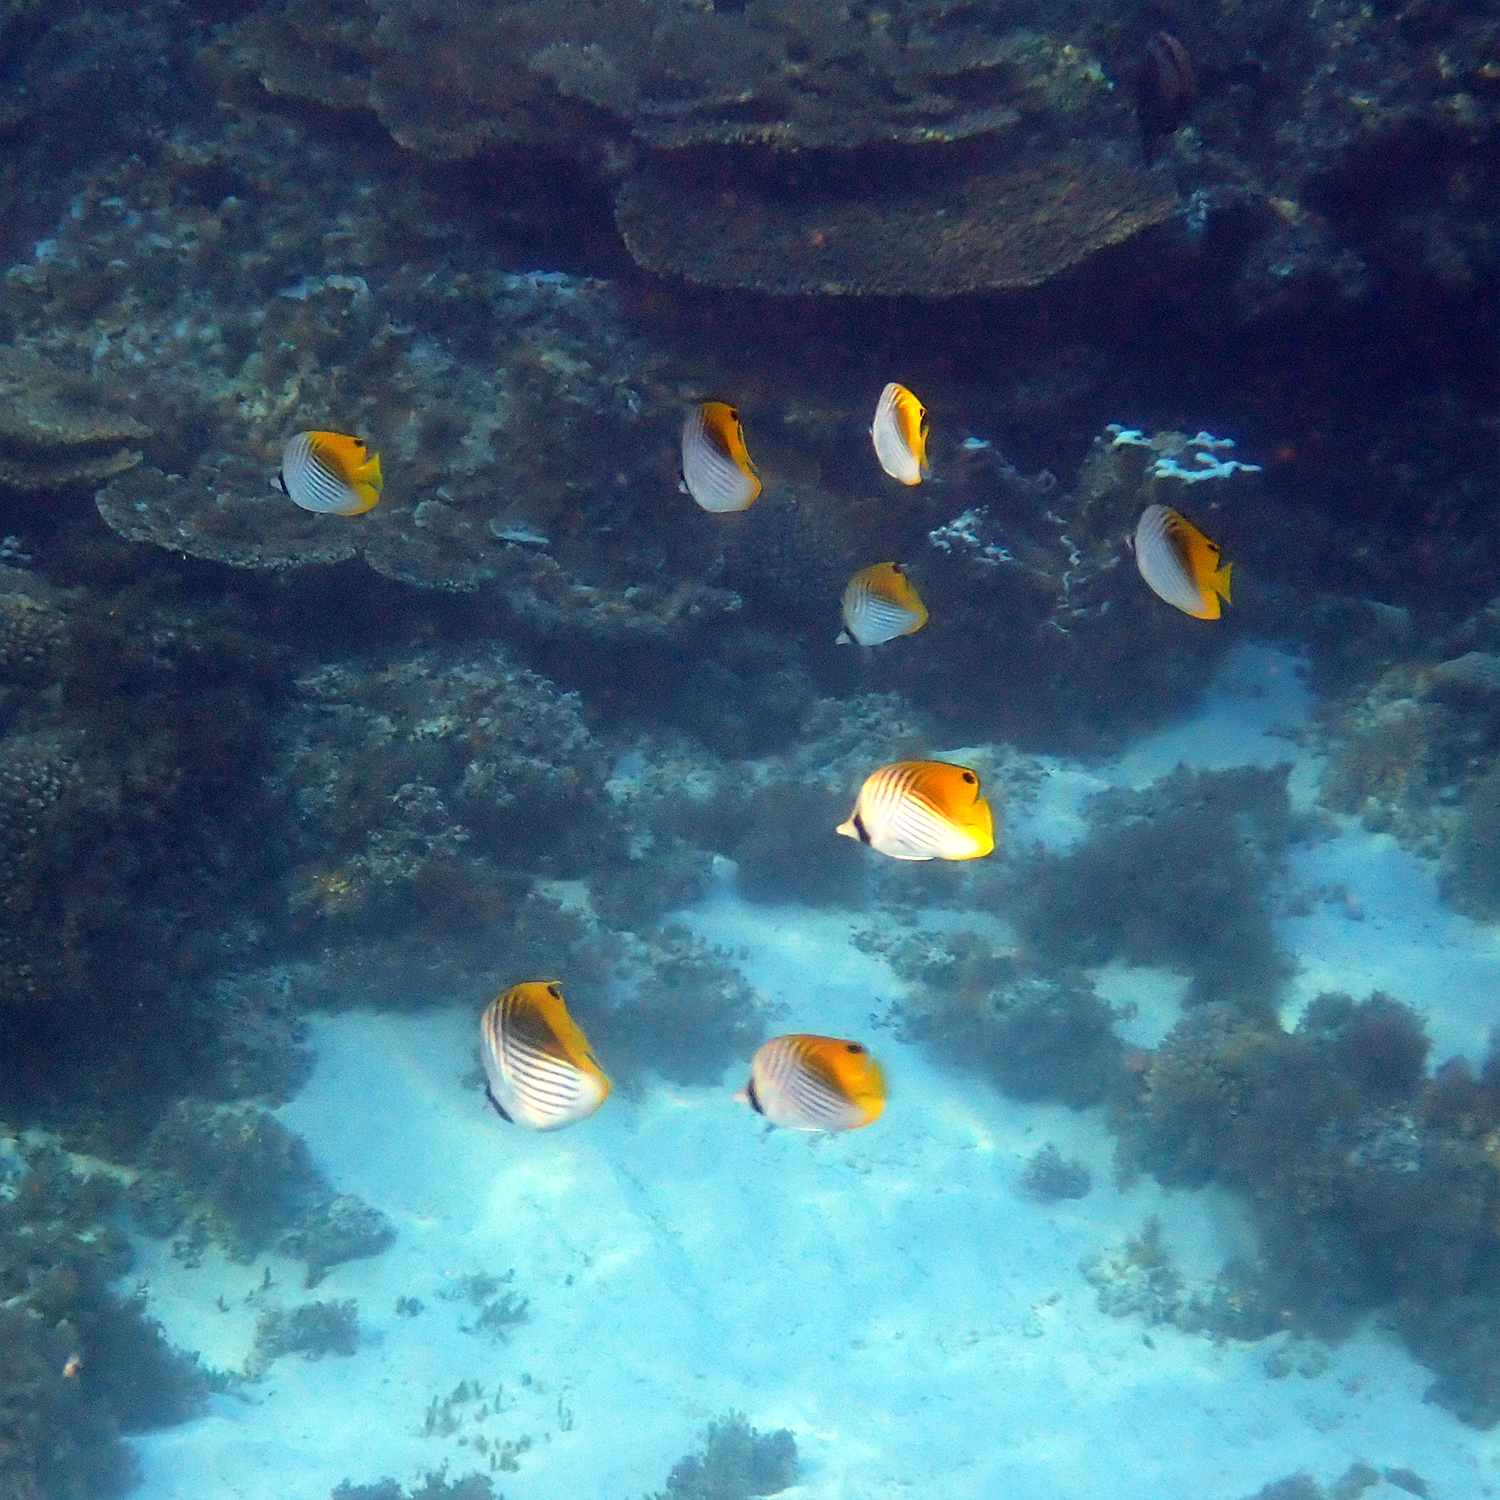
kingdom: Animalia
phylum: Chordata
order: Perciformes
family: Chaetodontidae
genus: Chaetodon
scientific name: Chaetodon auriga
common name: Threadfin butterflyfish
